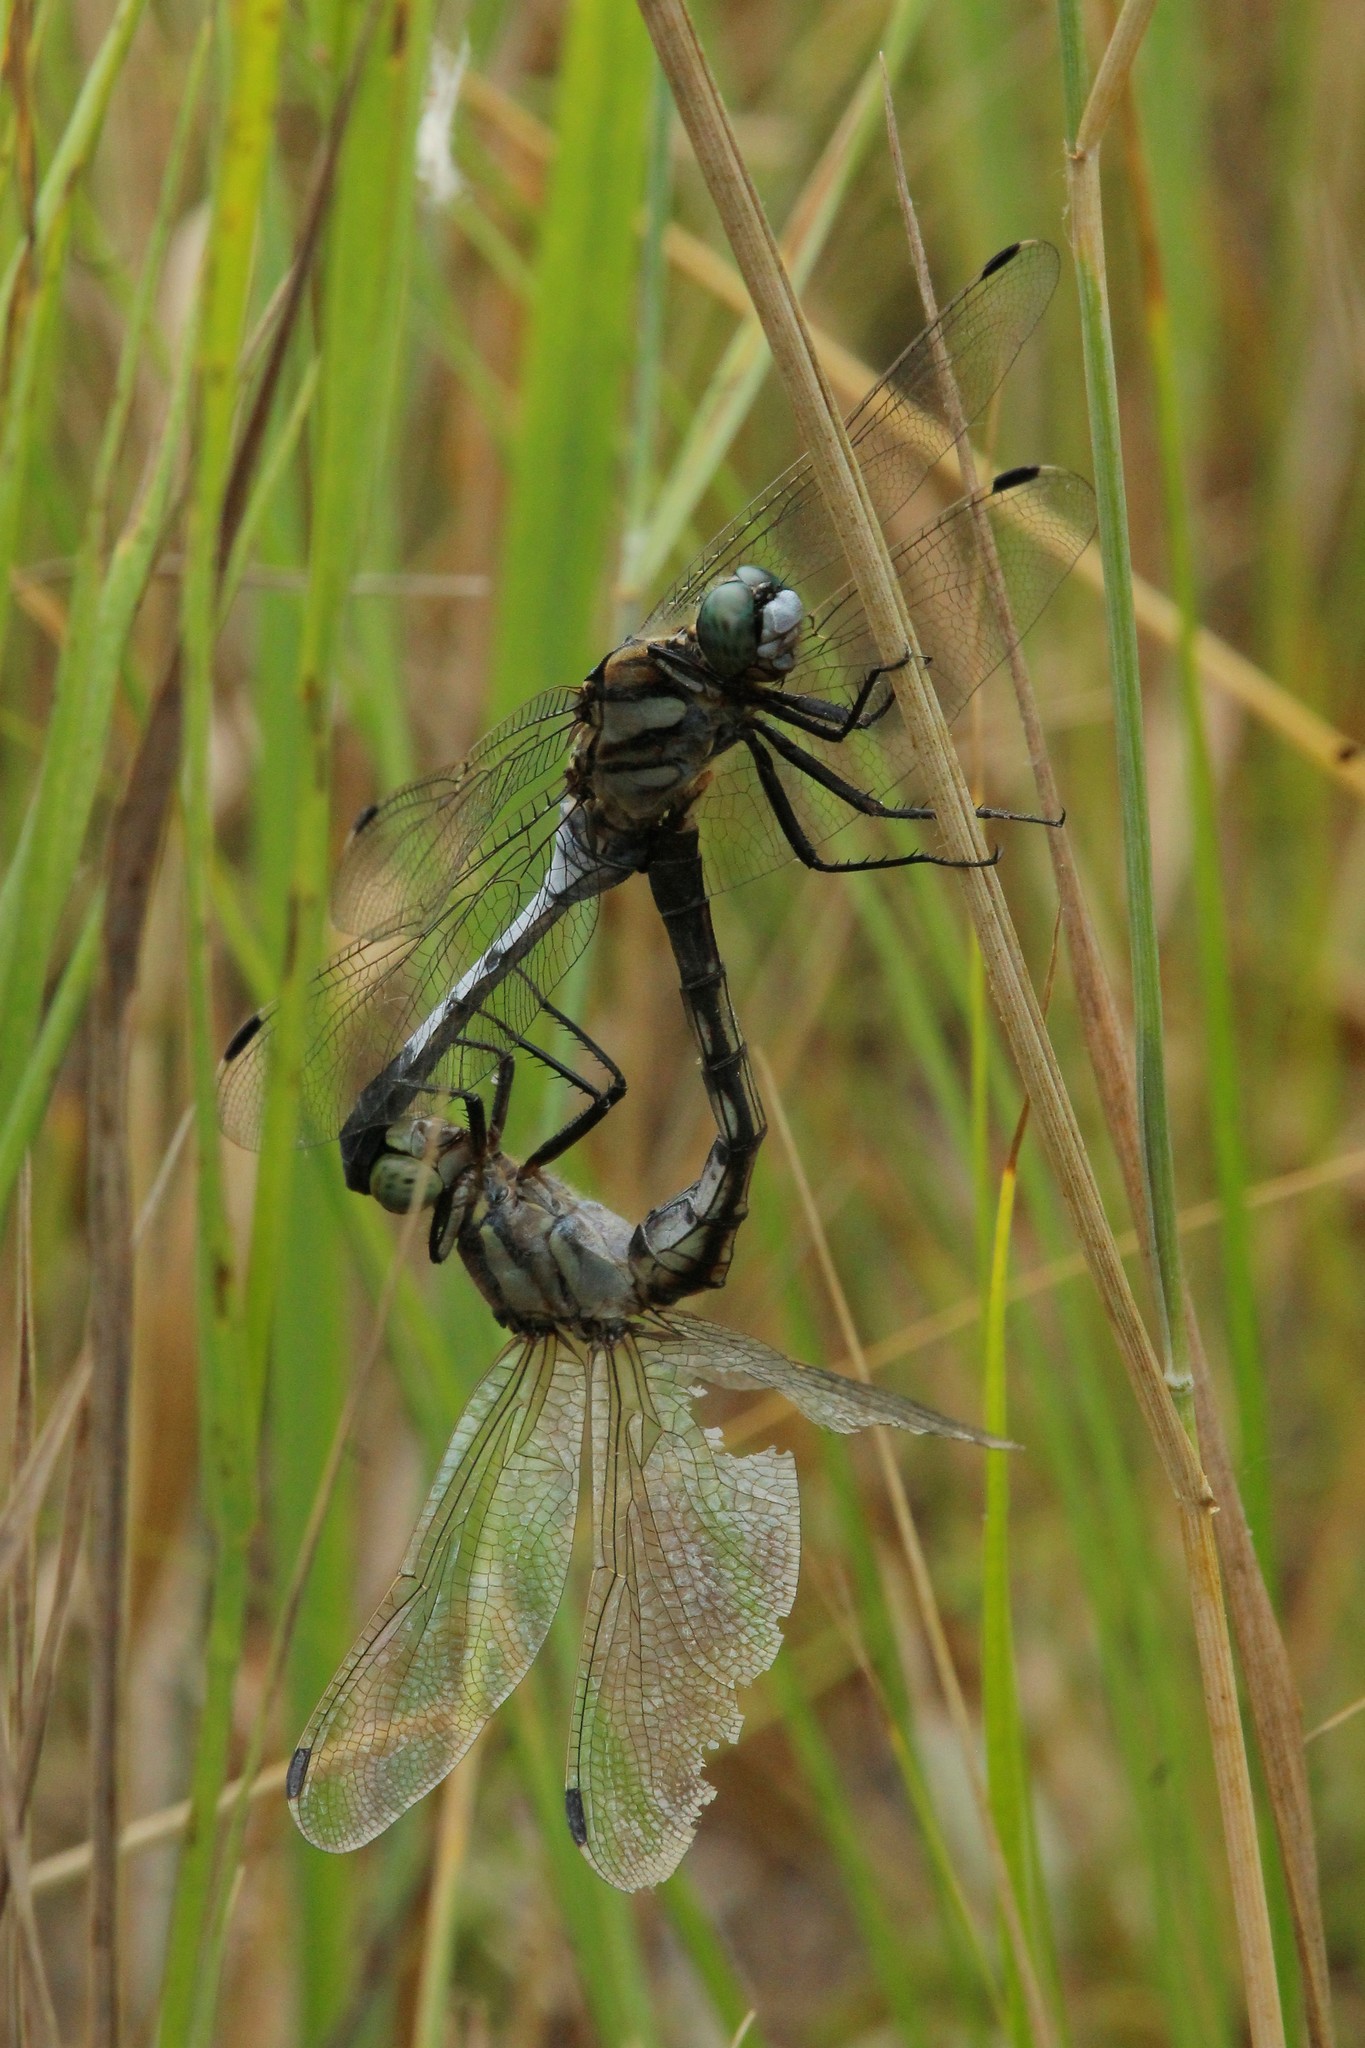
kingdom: Animalia
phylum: Arthropoda
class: Insecta
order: Odonata
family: Libellulidae
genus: Orthetrum
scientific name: Orthetrum albistylum
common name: White-tailed skimmer
